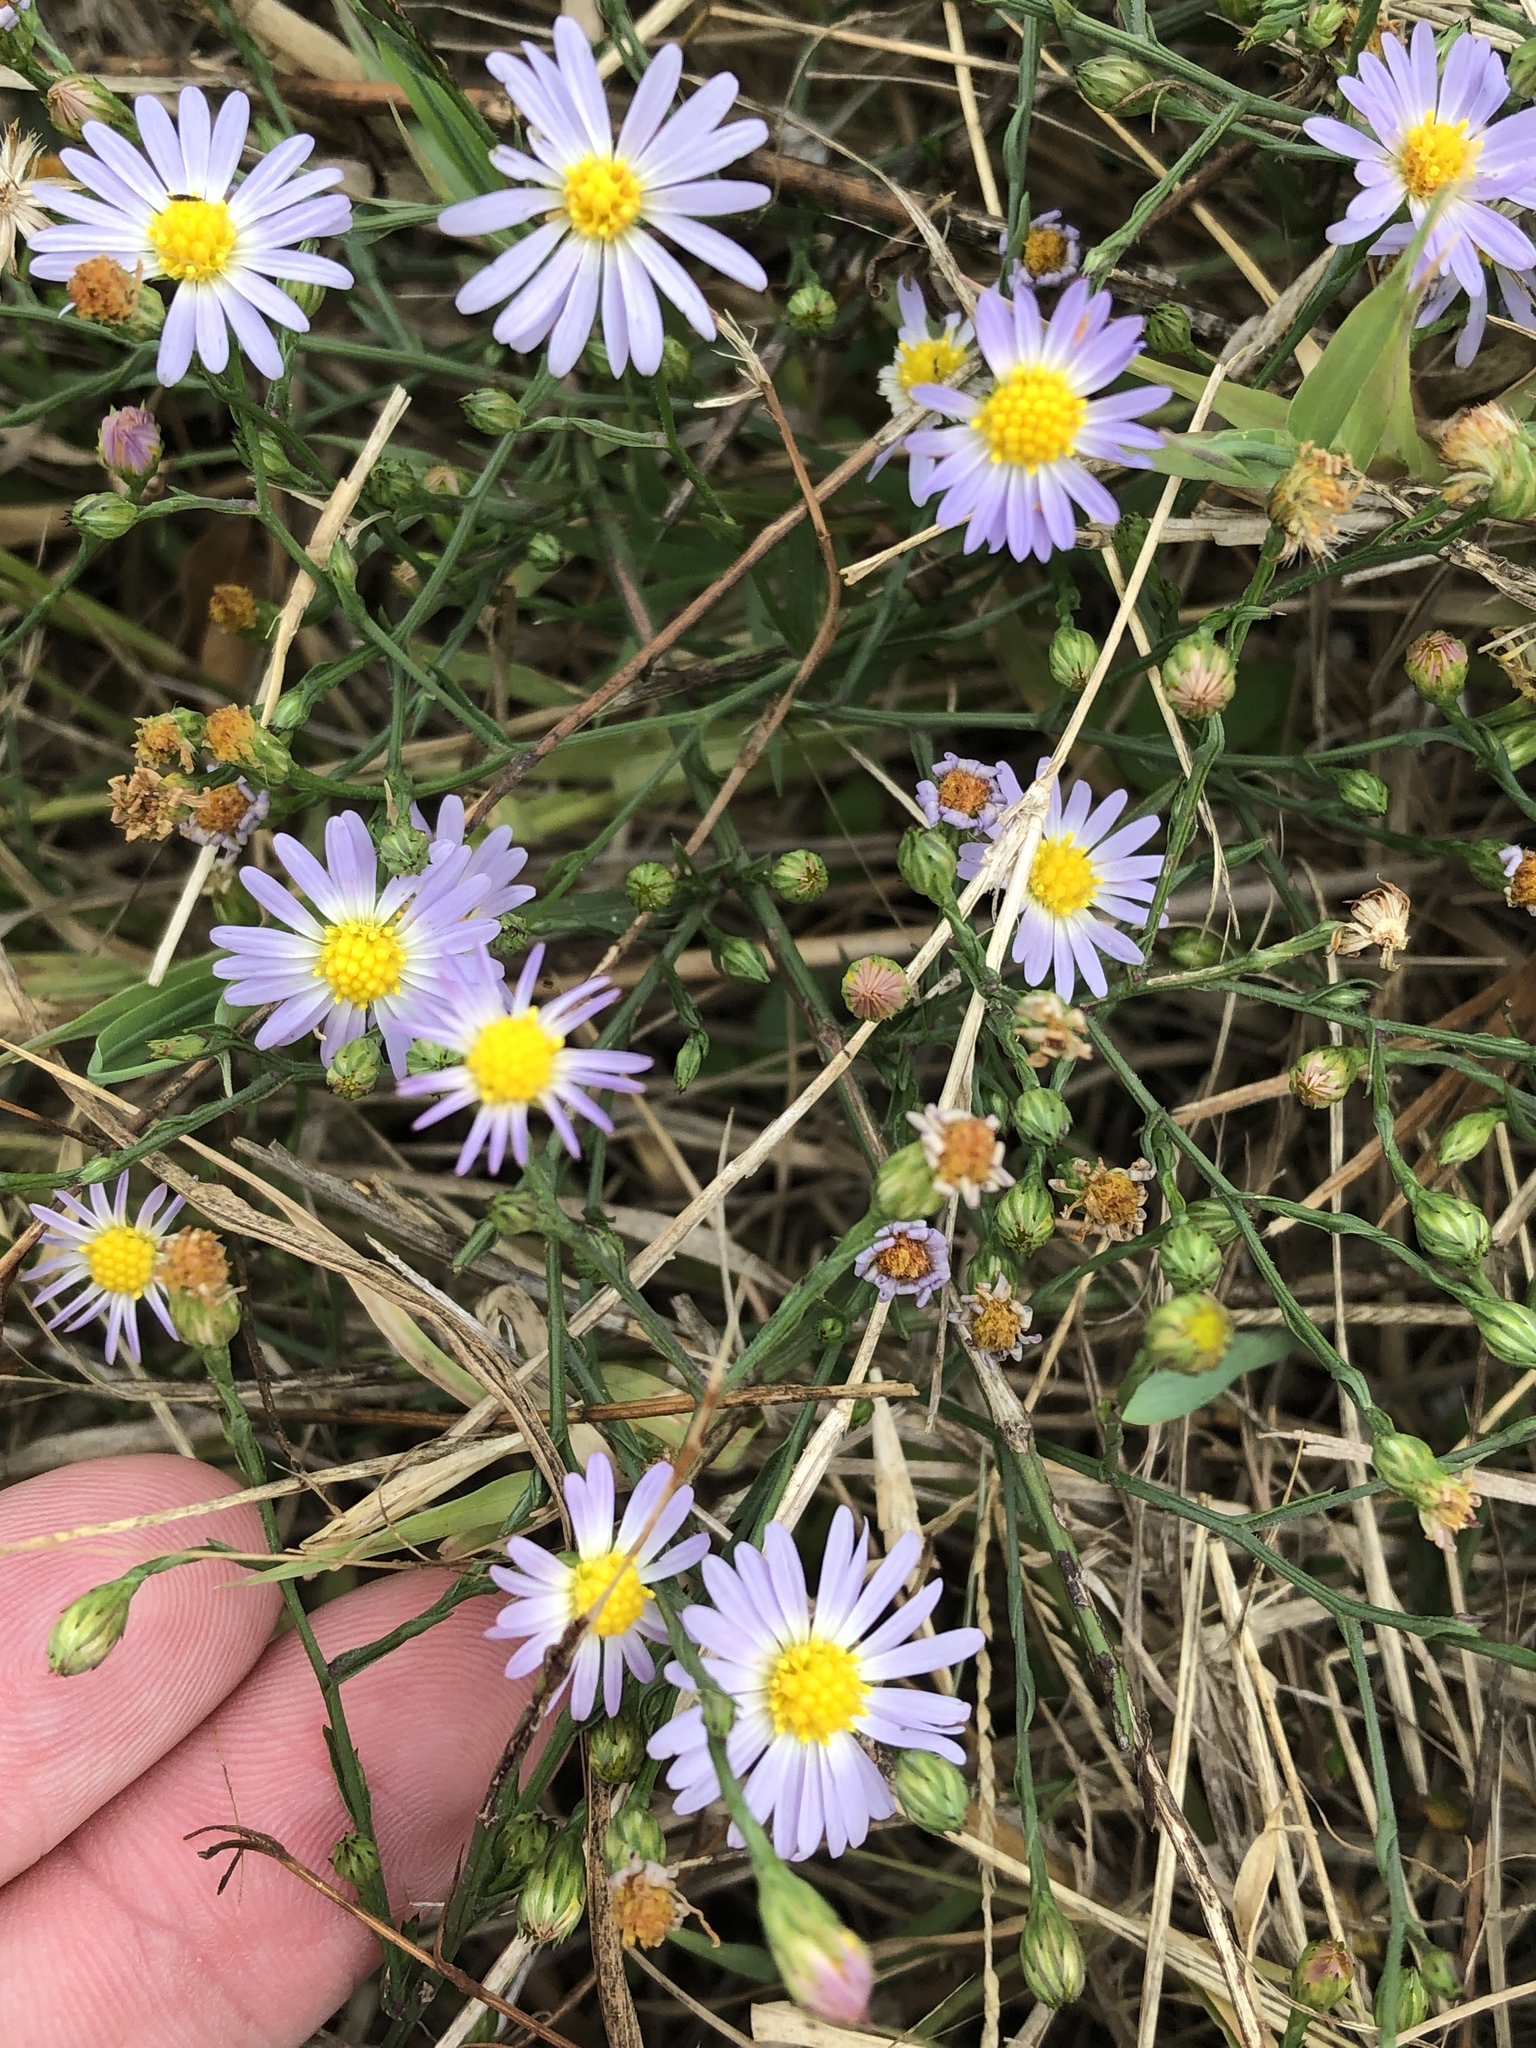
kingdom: Plantae
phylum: Tracheophyta
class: Magnoliopsida
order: Asterales
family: Asteraceae
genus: Symphyotrichum
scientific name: Symphyotrichum divaricatum
